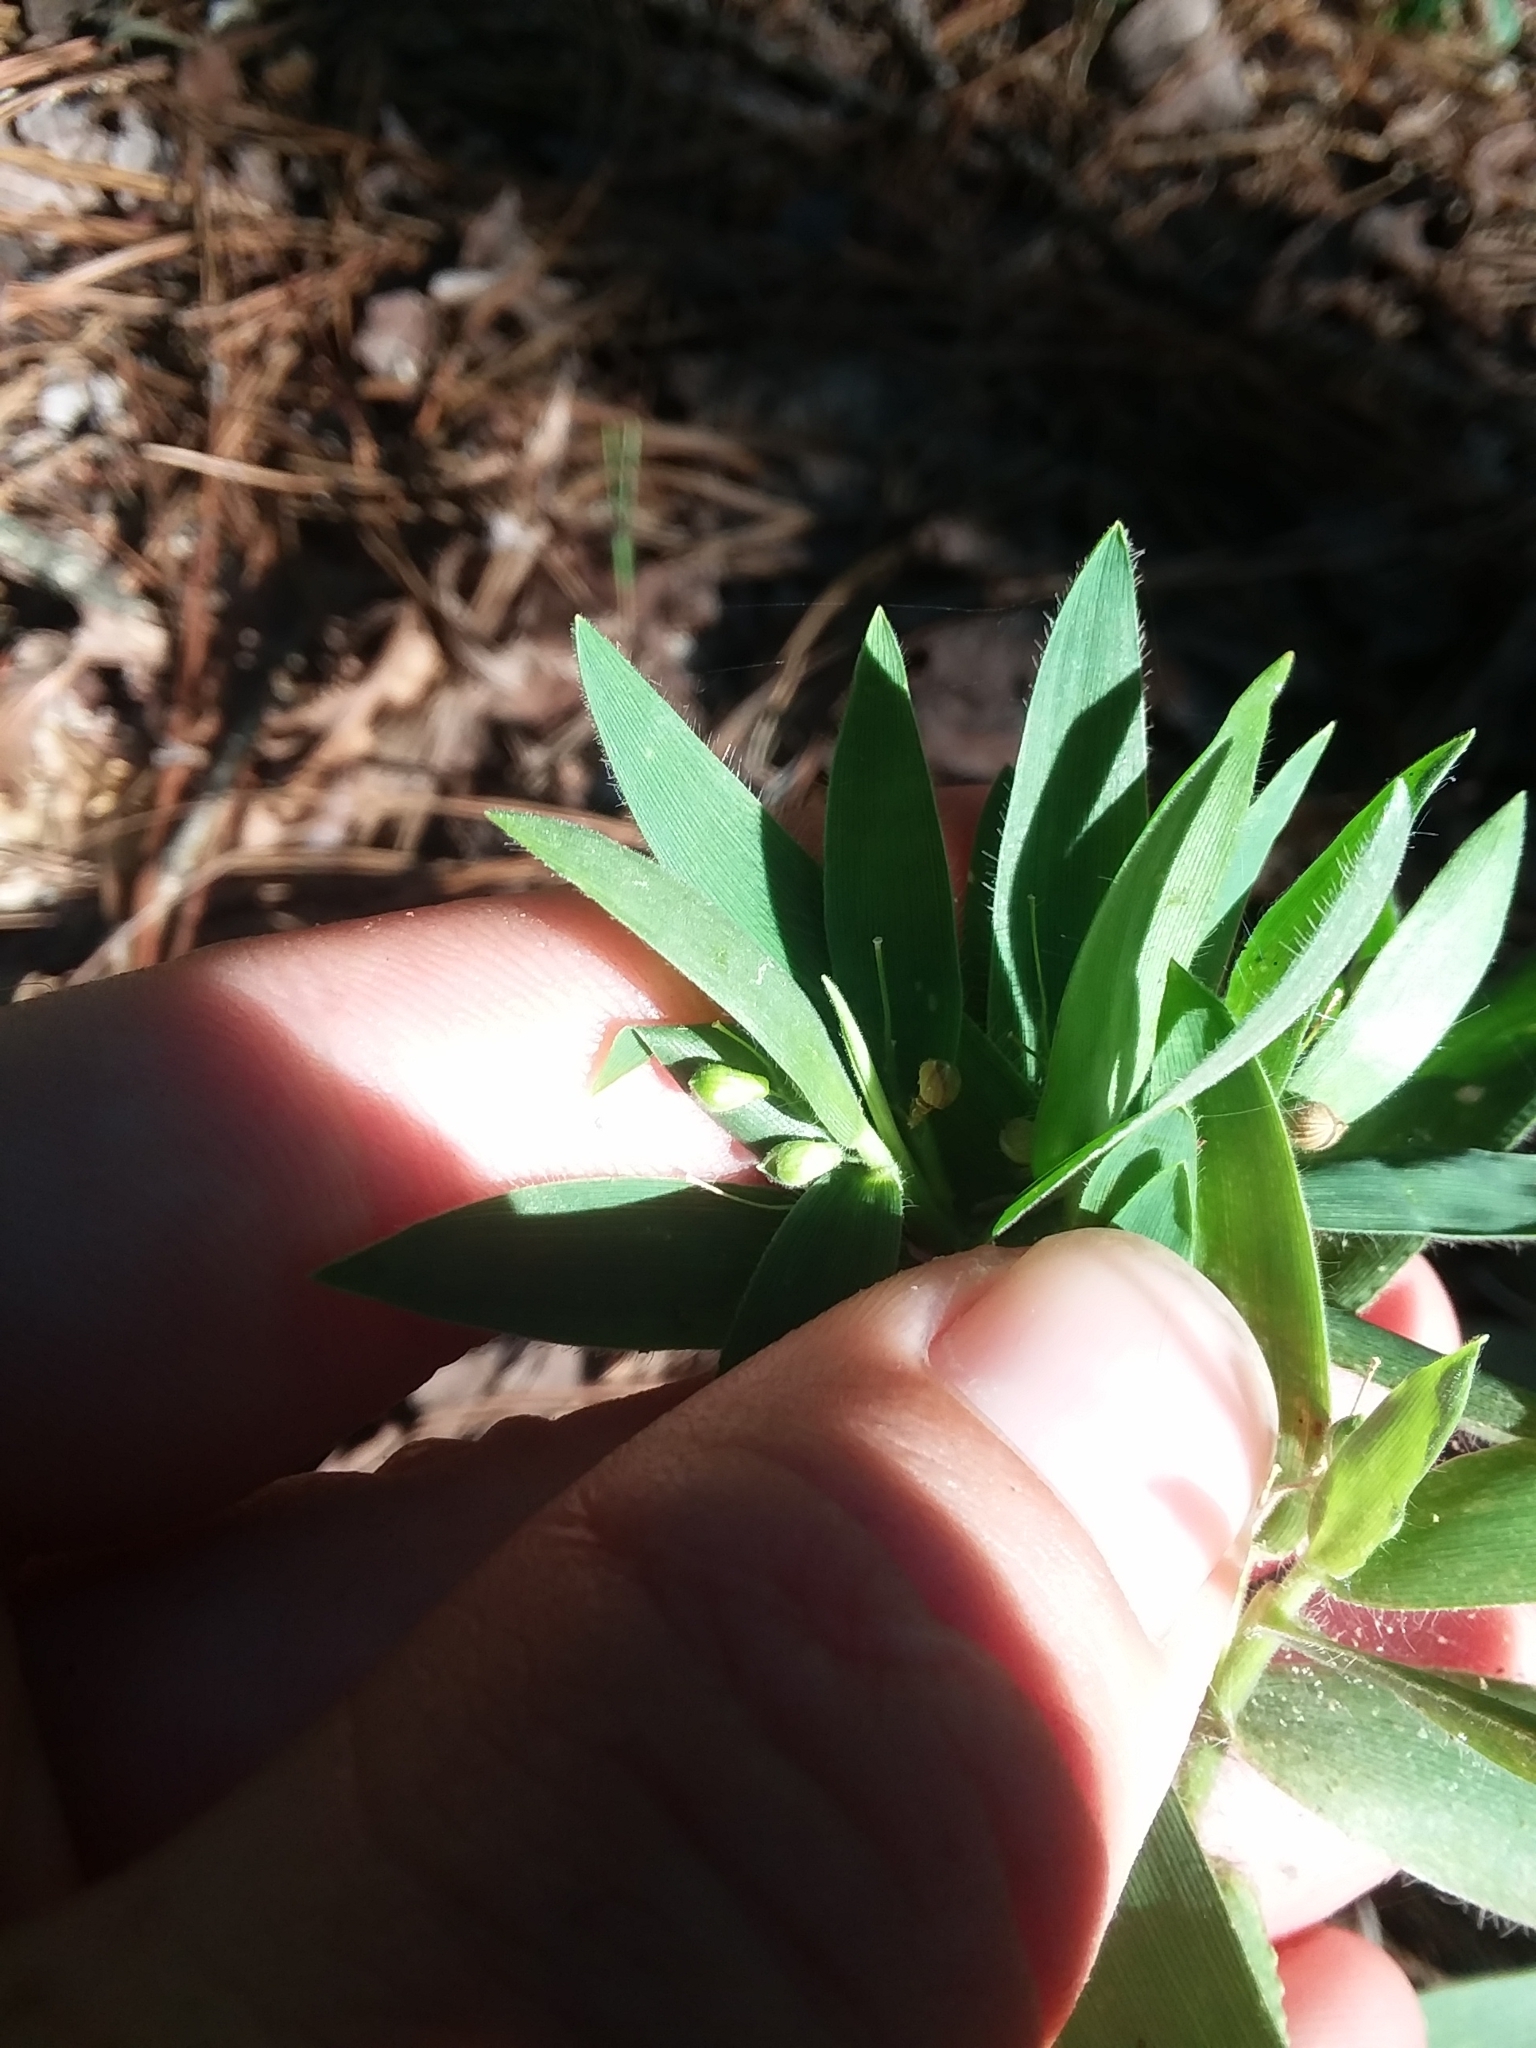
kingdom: Plantae
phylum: Tracheophyta
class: Liliopsida
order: Poales
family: Poaceae
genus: Dichanthelium
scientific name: Dichanthelium ravenelii
